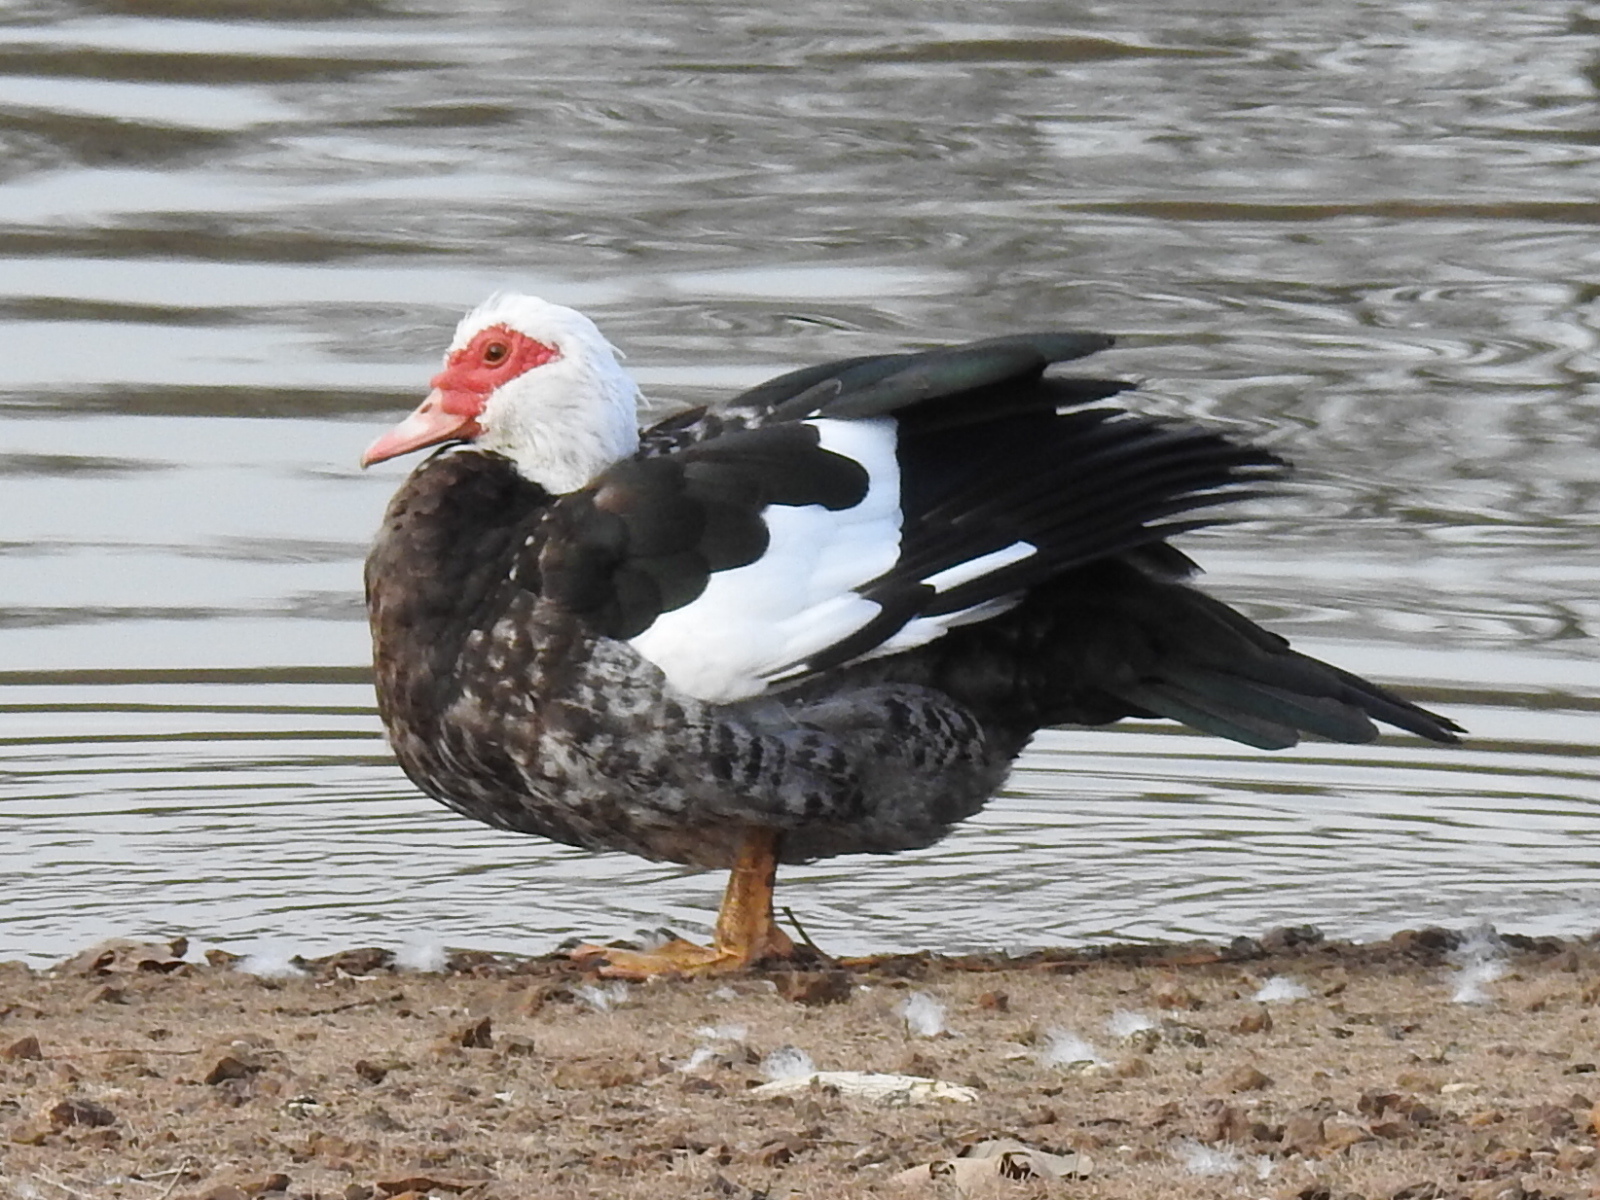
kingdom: Animalia
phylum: Chordata
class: Aves
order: Anseriformes
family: Anatidae
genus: Cairina
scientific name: Cairina moschata
